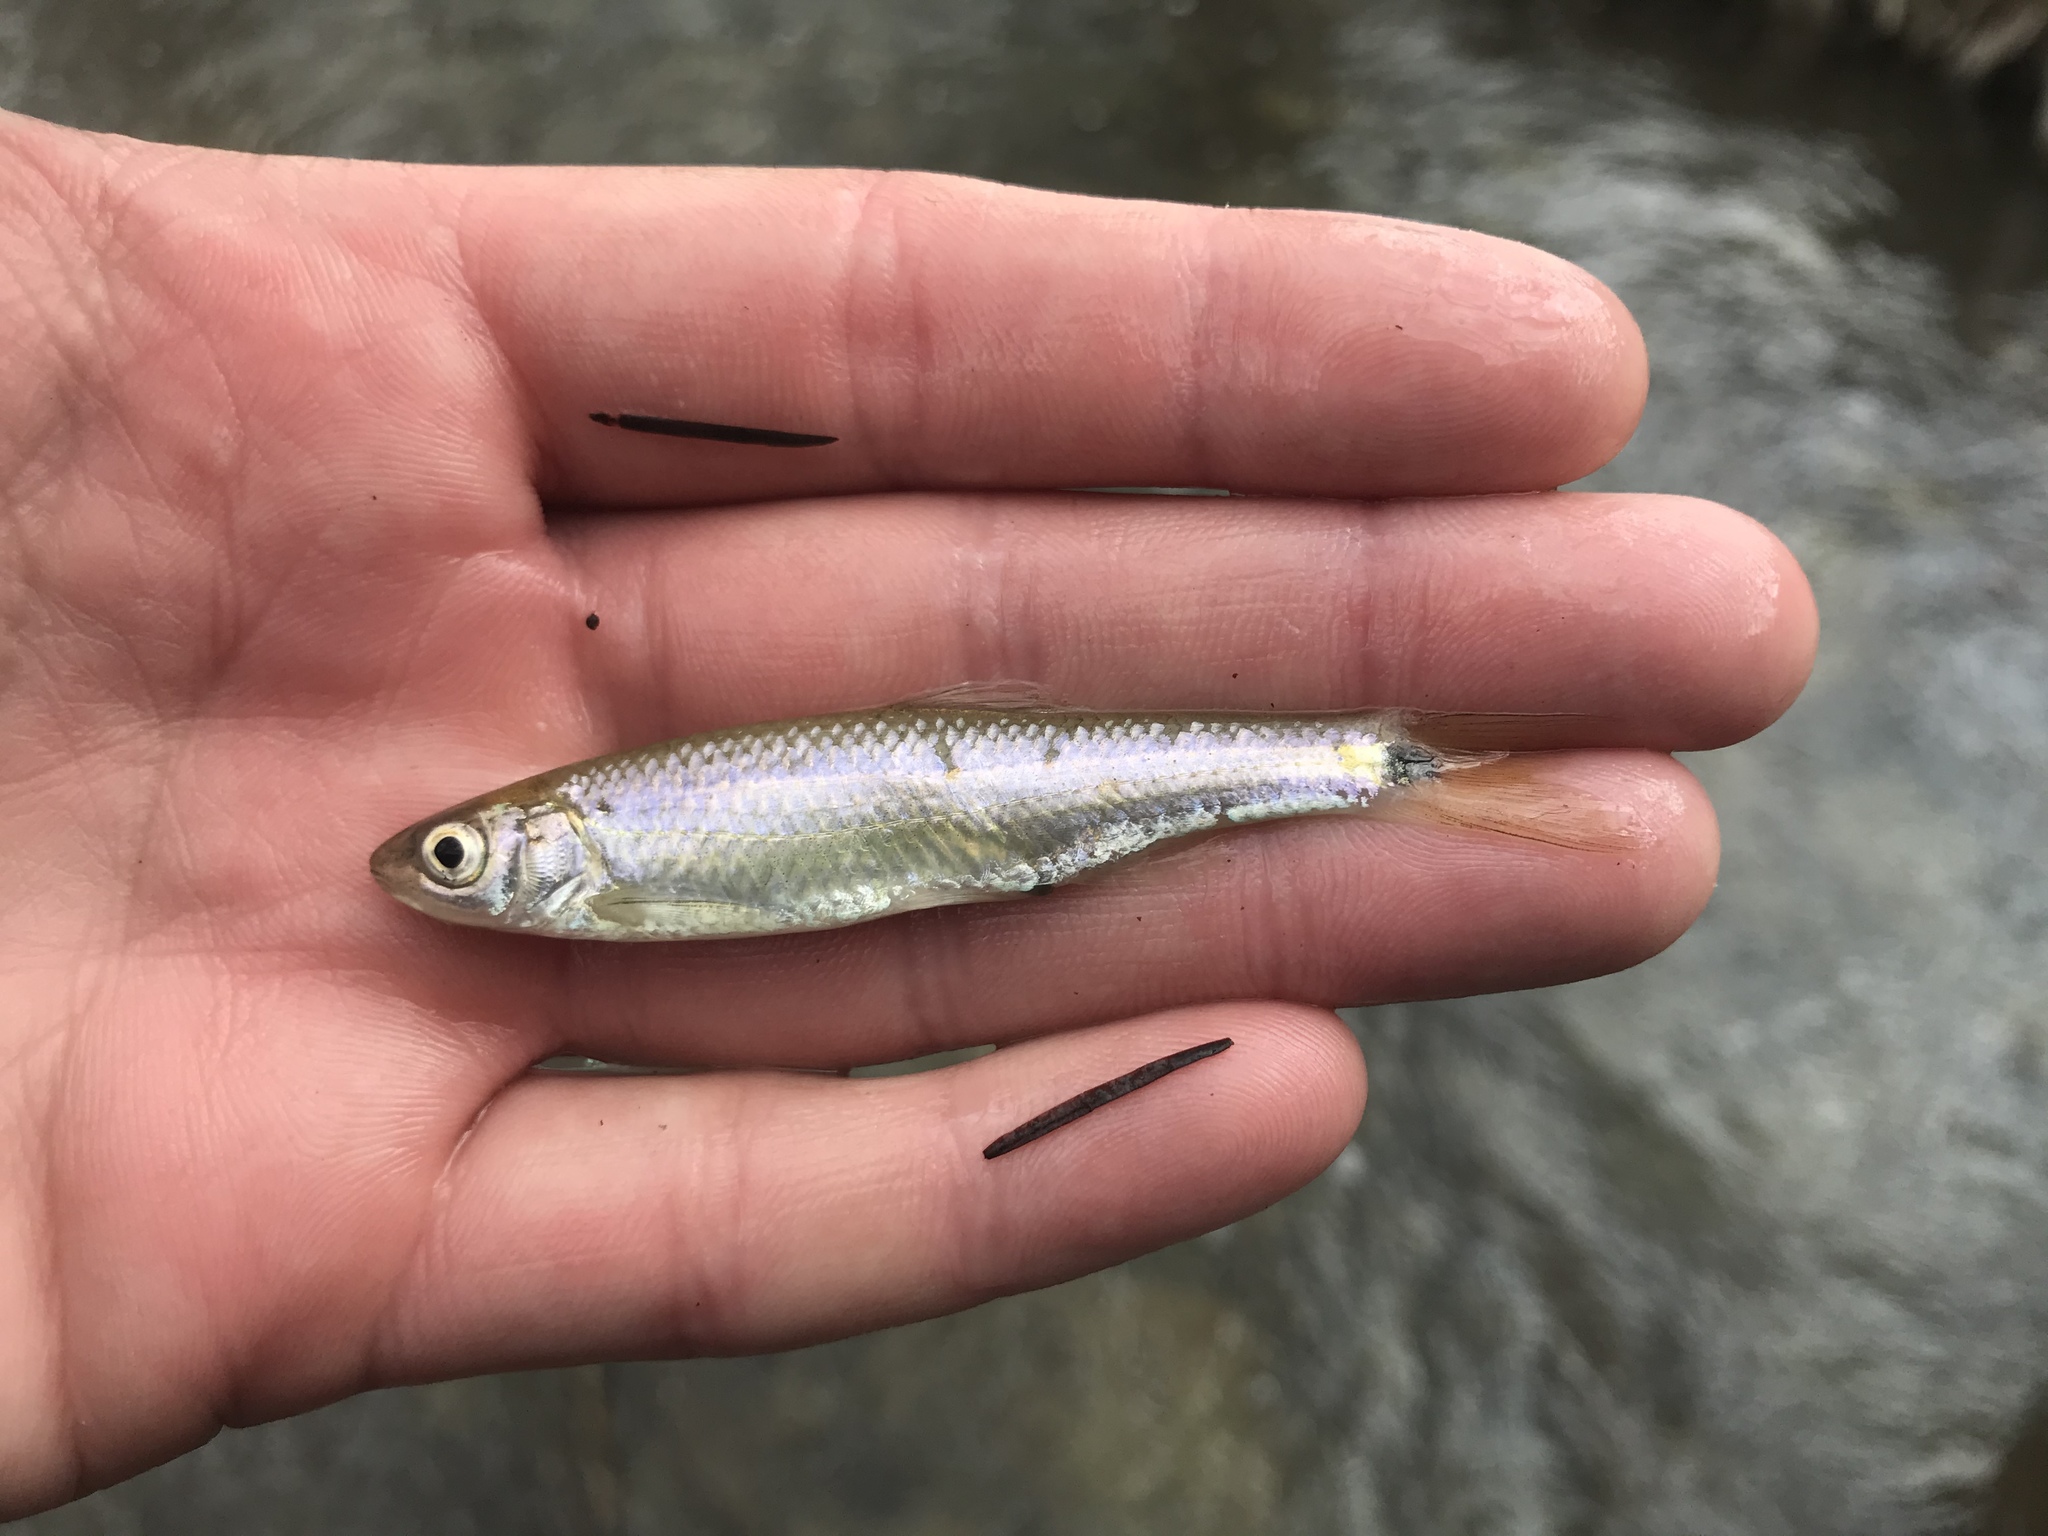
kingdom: Animalia
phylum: Chordata
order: Cypriniformes
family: Cyprinidae
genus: Cyprinella
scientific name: Cyprinella venusta
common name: Blacktail shiner
